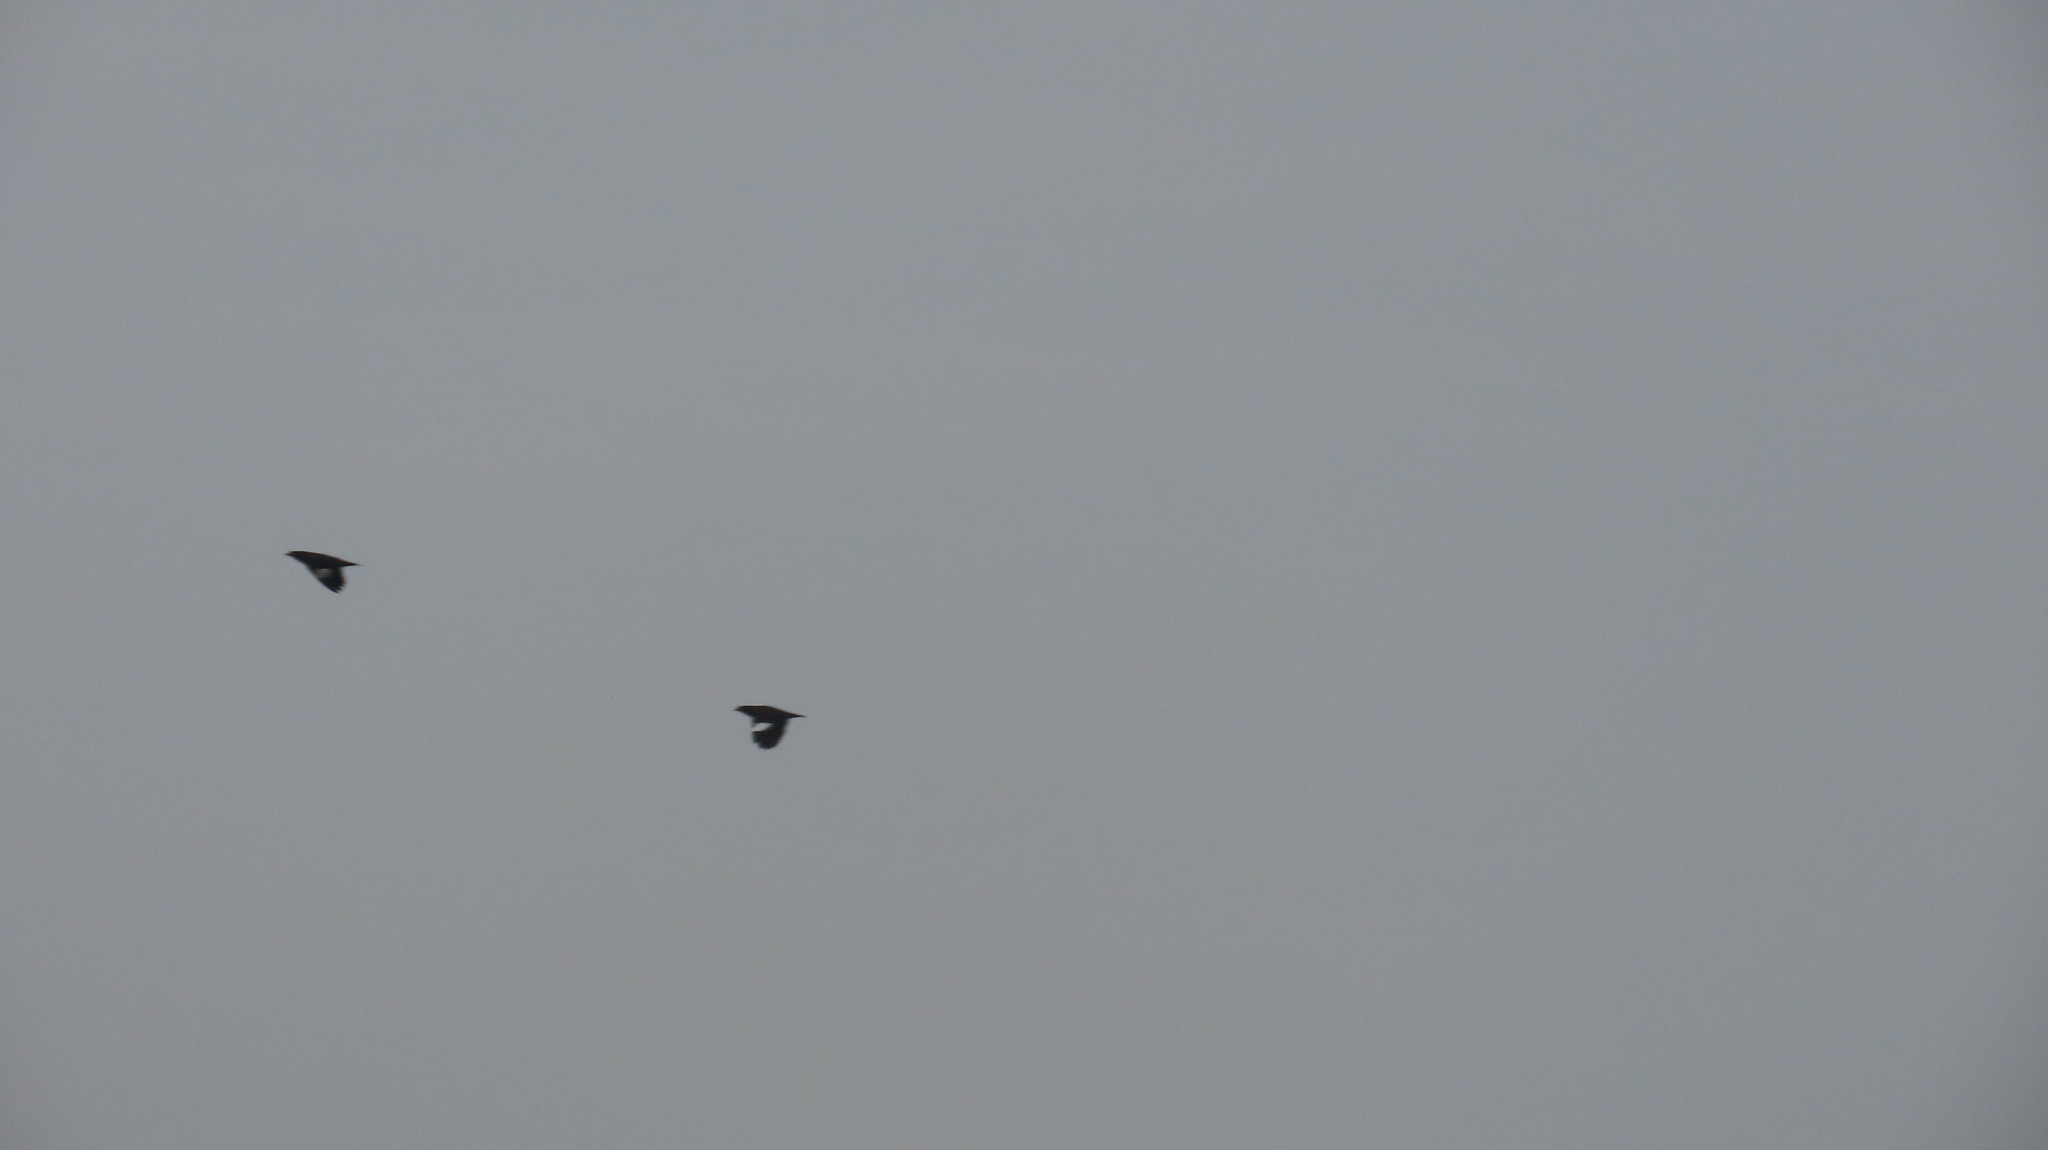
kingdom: Animalia
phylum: Chordata
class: Aves
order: Passeriformes
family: Sturnidae
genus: Acridotheres
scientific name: Acridotheres fuscus
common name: Jungle myna
